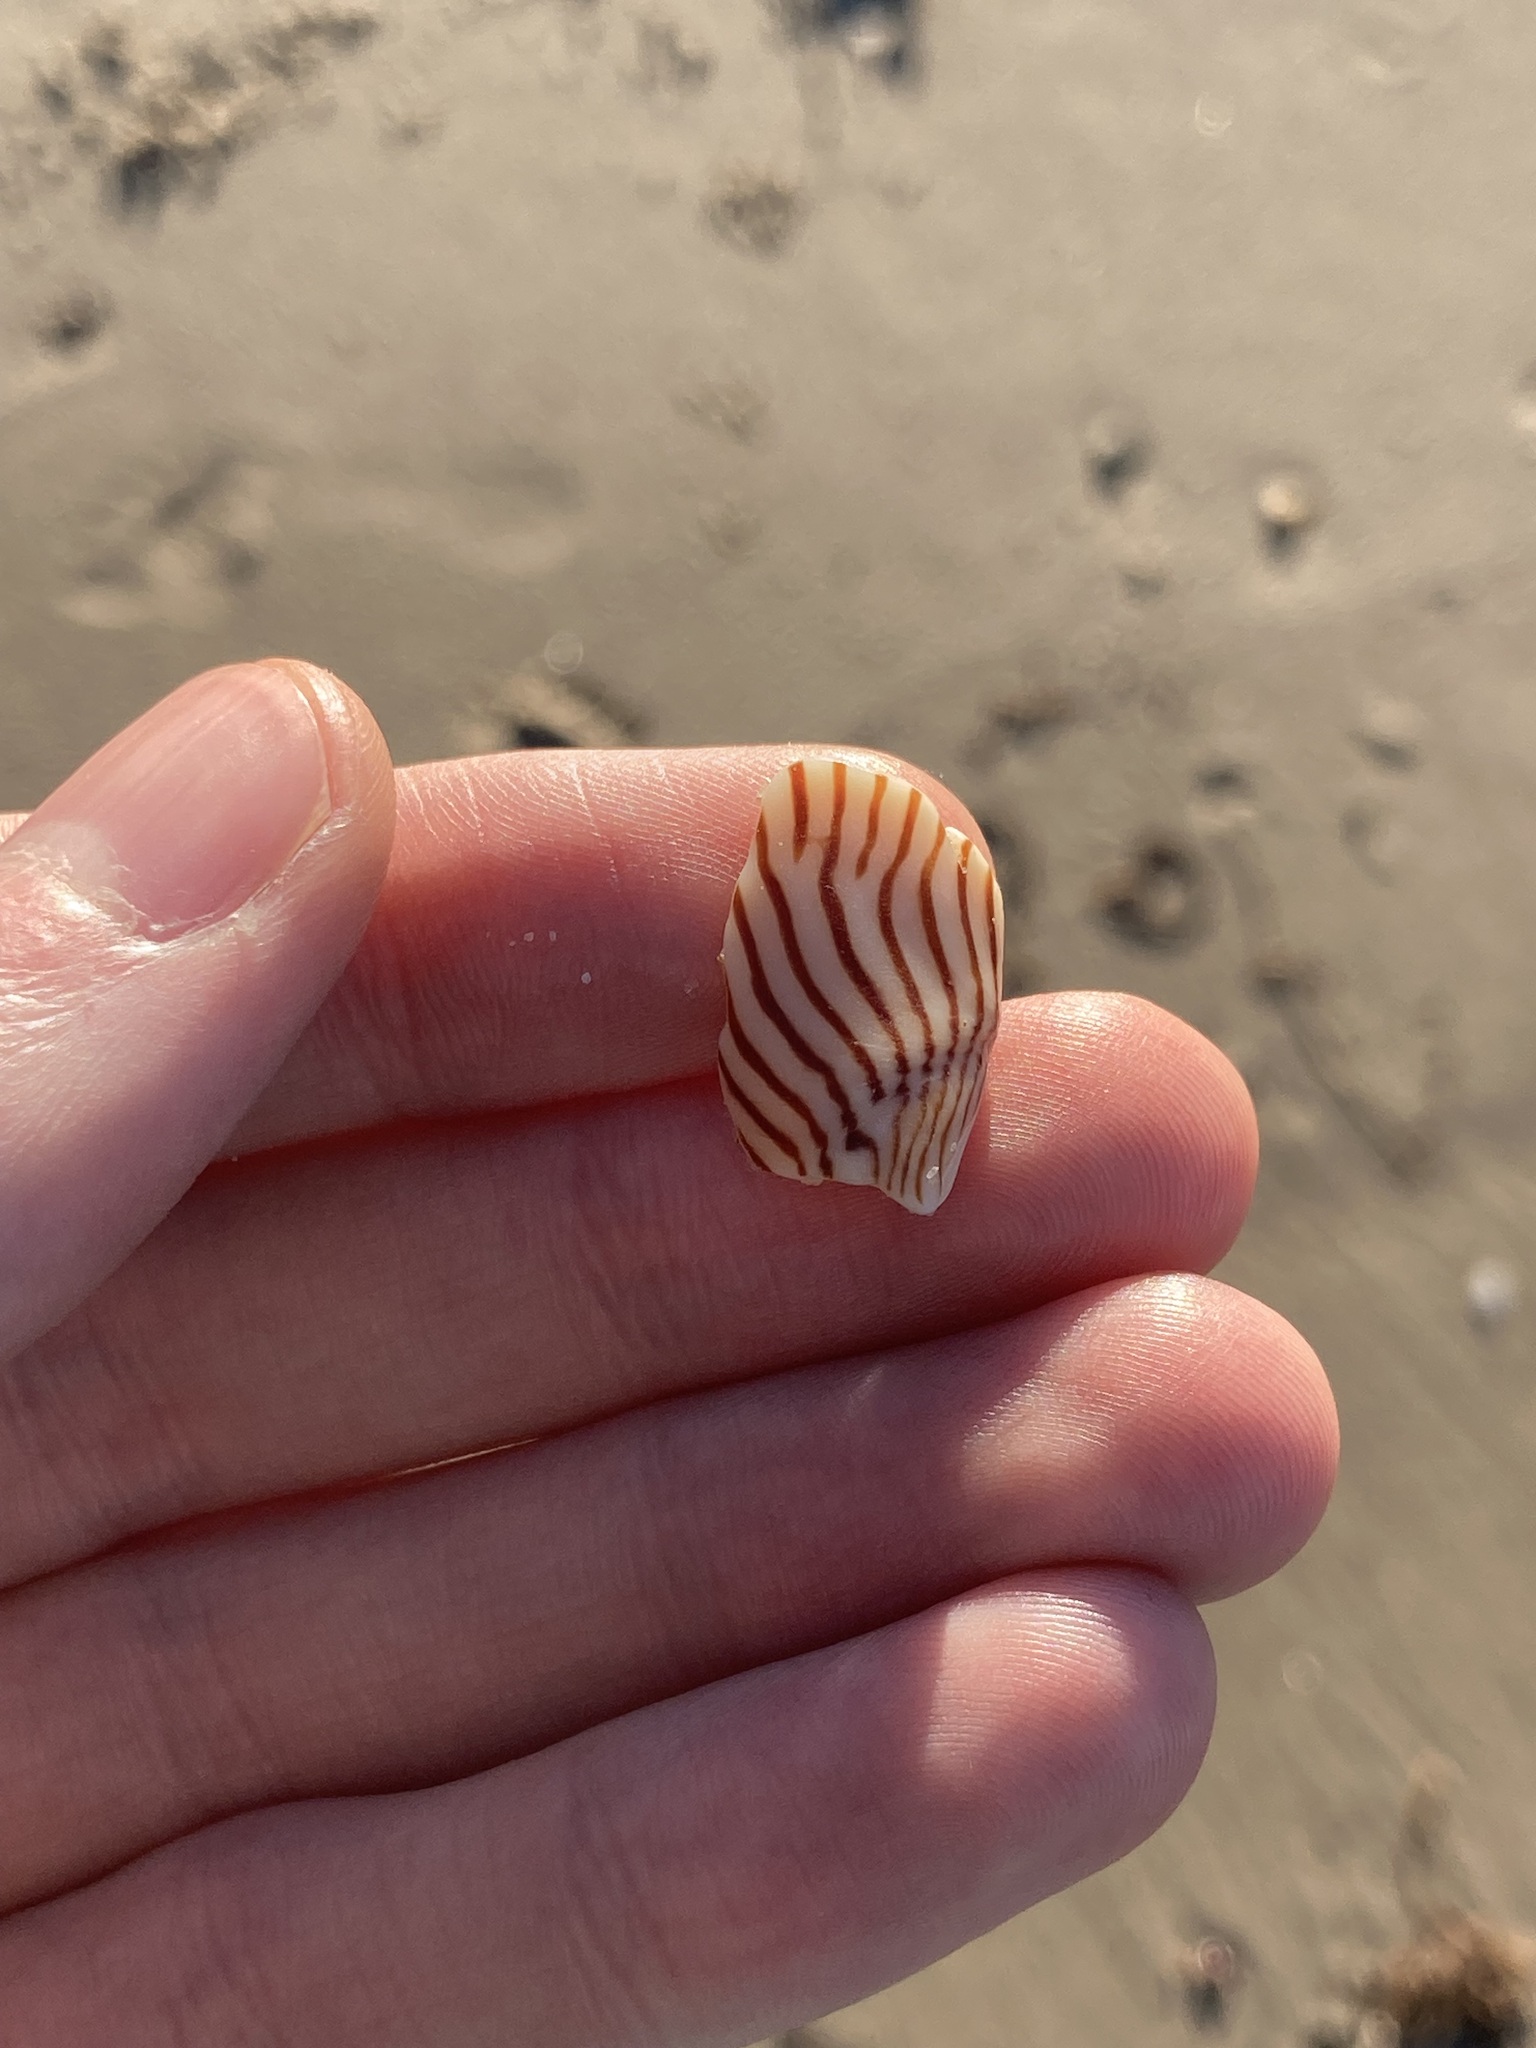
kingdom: Animalia
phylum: Mollusca
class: Gastropoda
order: Neogastropoda
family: Volutidae
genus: Amoria
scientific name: Amoria zebra
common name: Zebra volute
